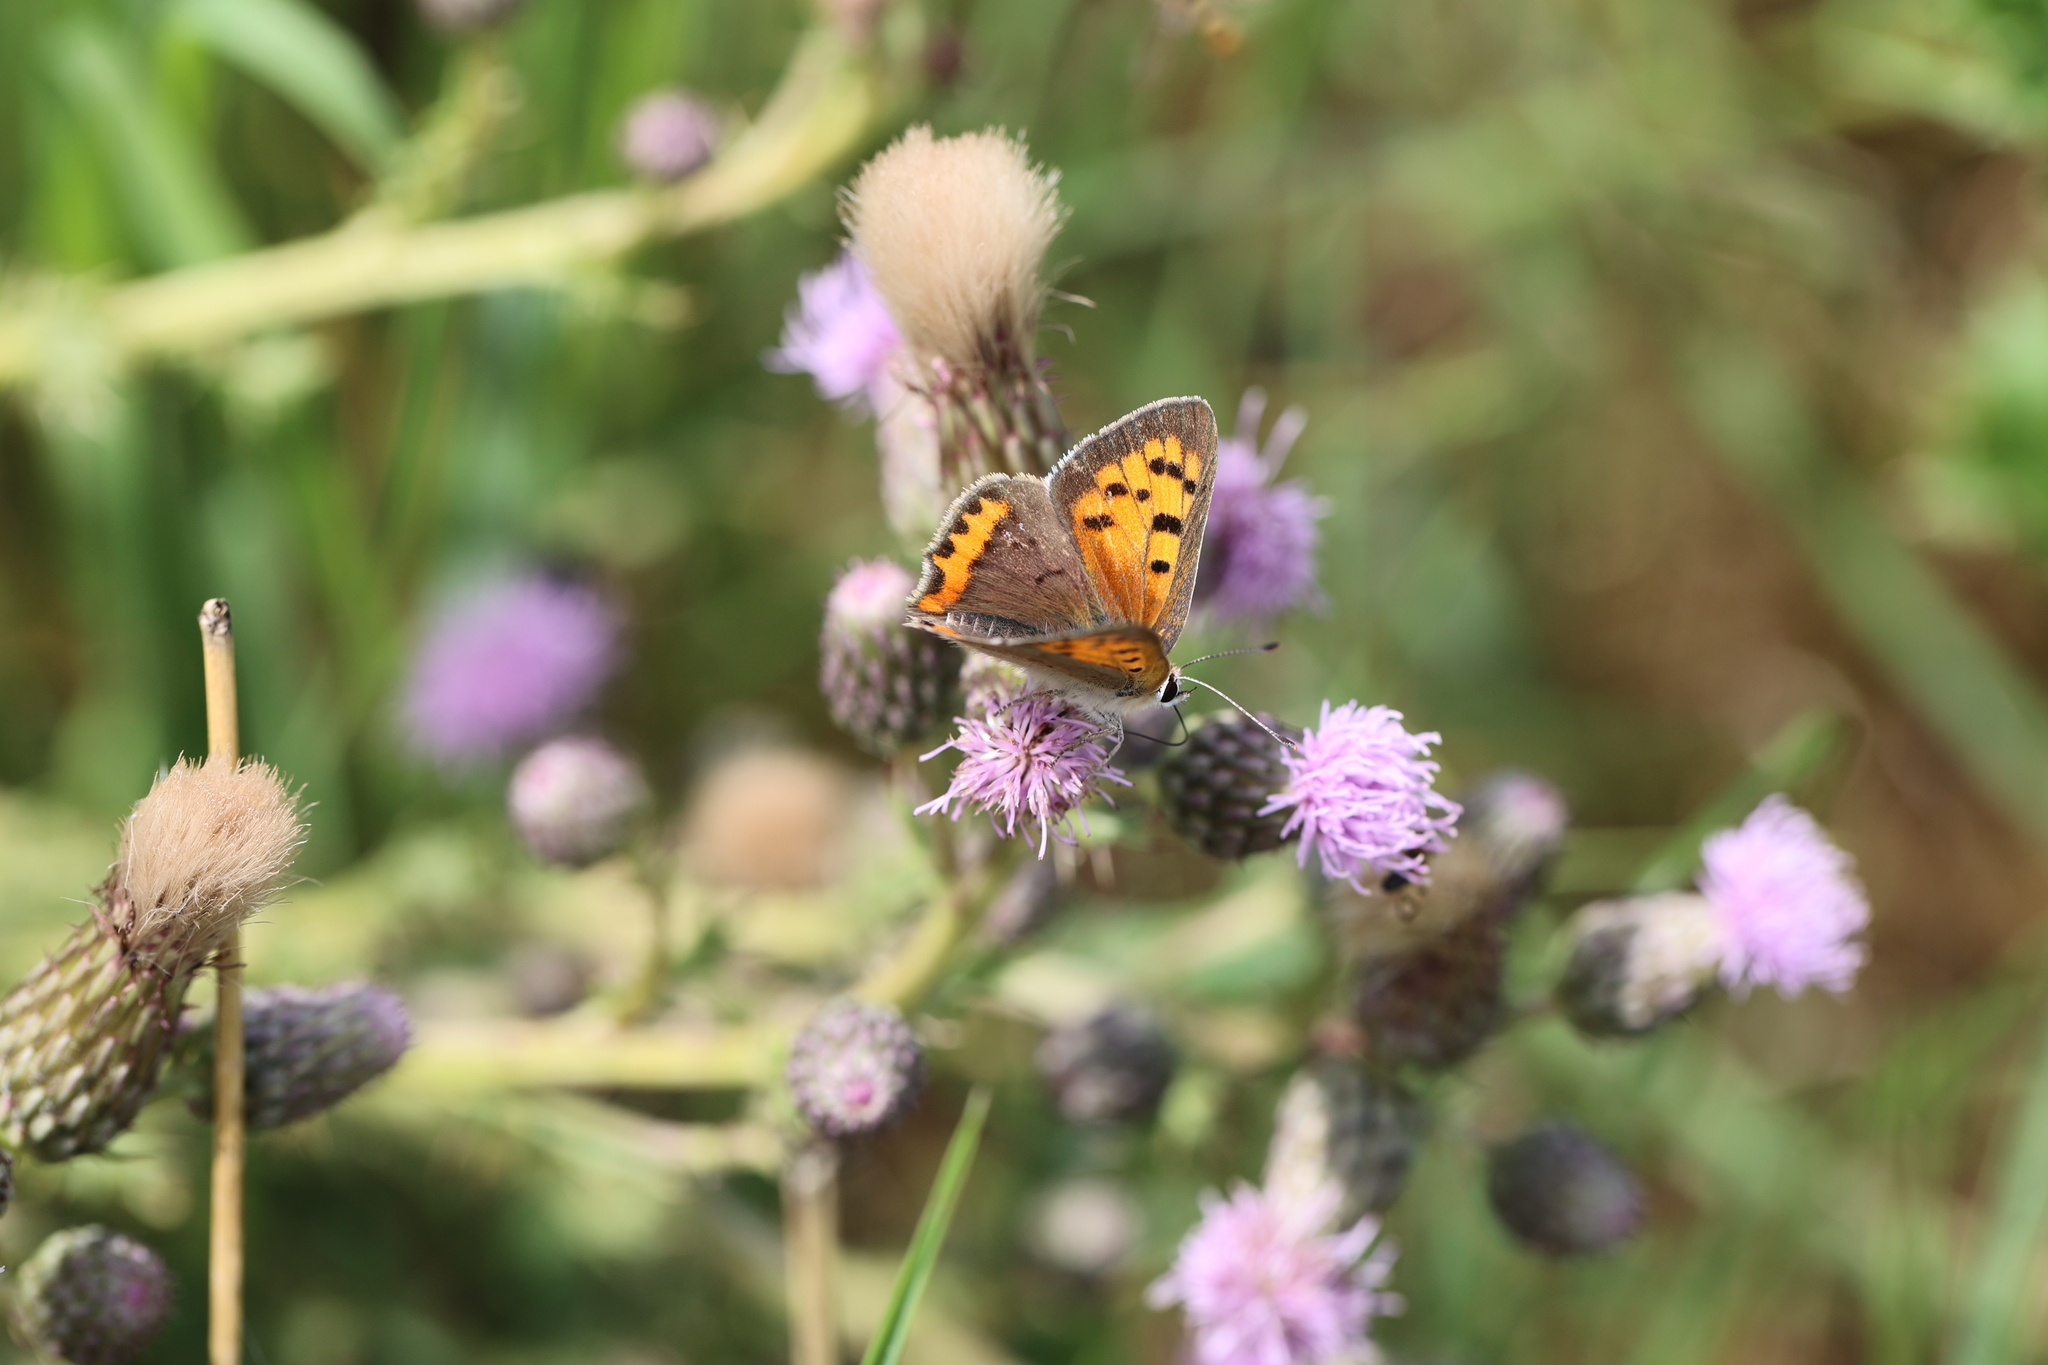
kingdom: Animalia
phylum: Arthropoda
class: Insecta
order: Lepidoptera
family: Lycaenidae
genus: Lycaena
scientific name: Lycaena phlaeas
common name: Small copper
